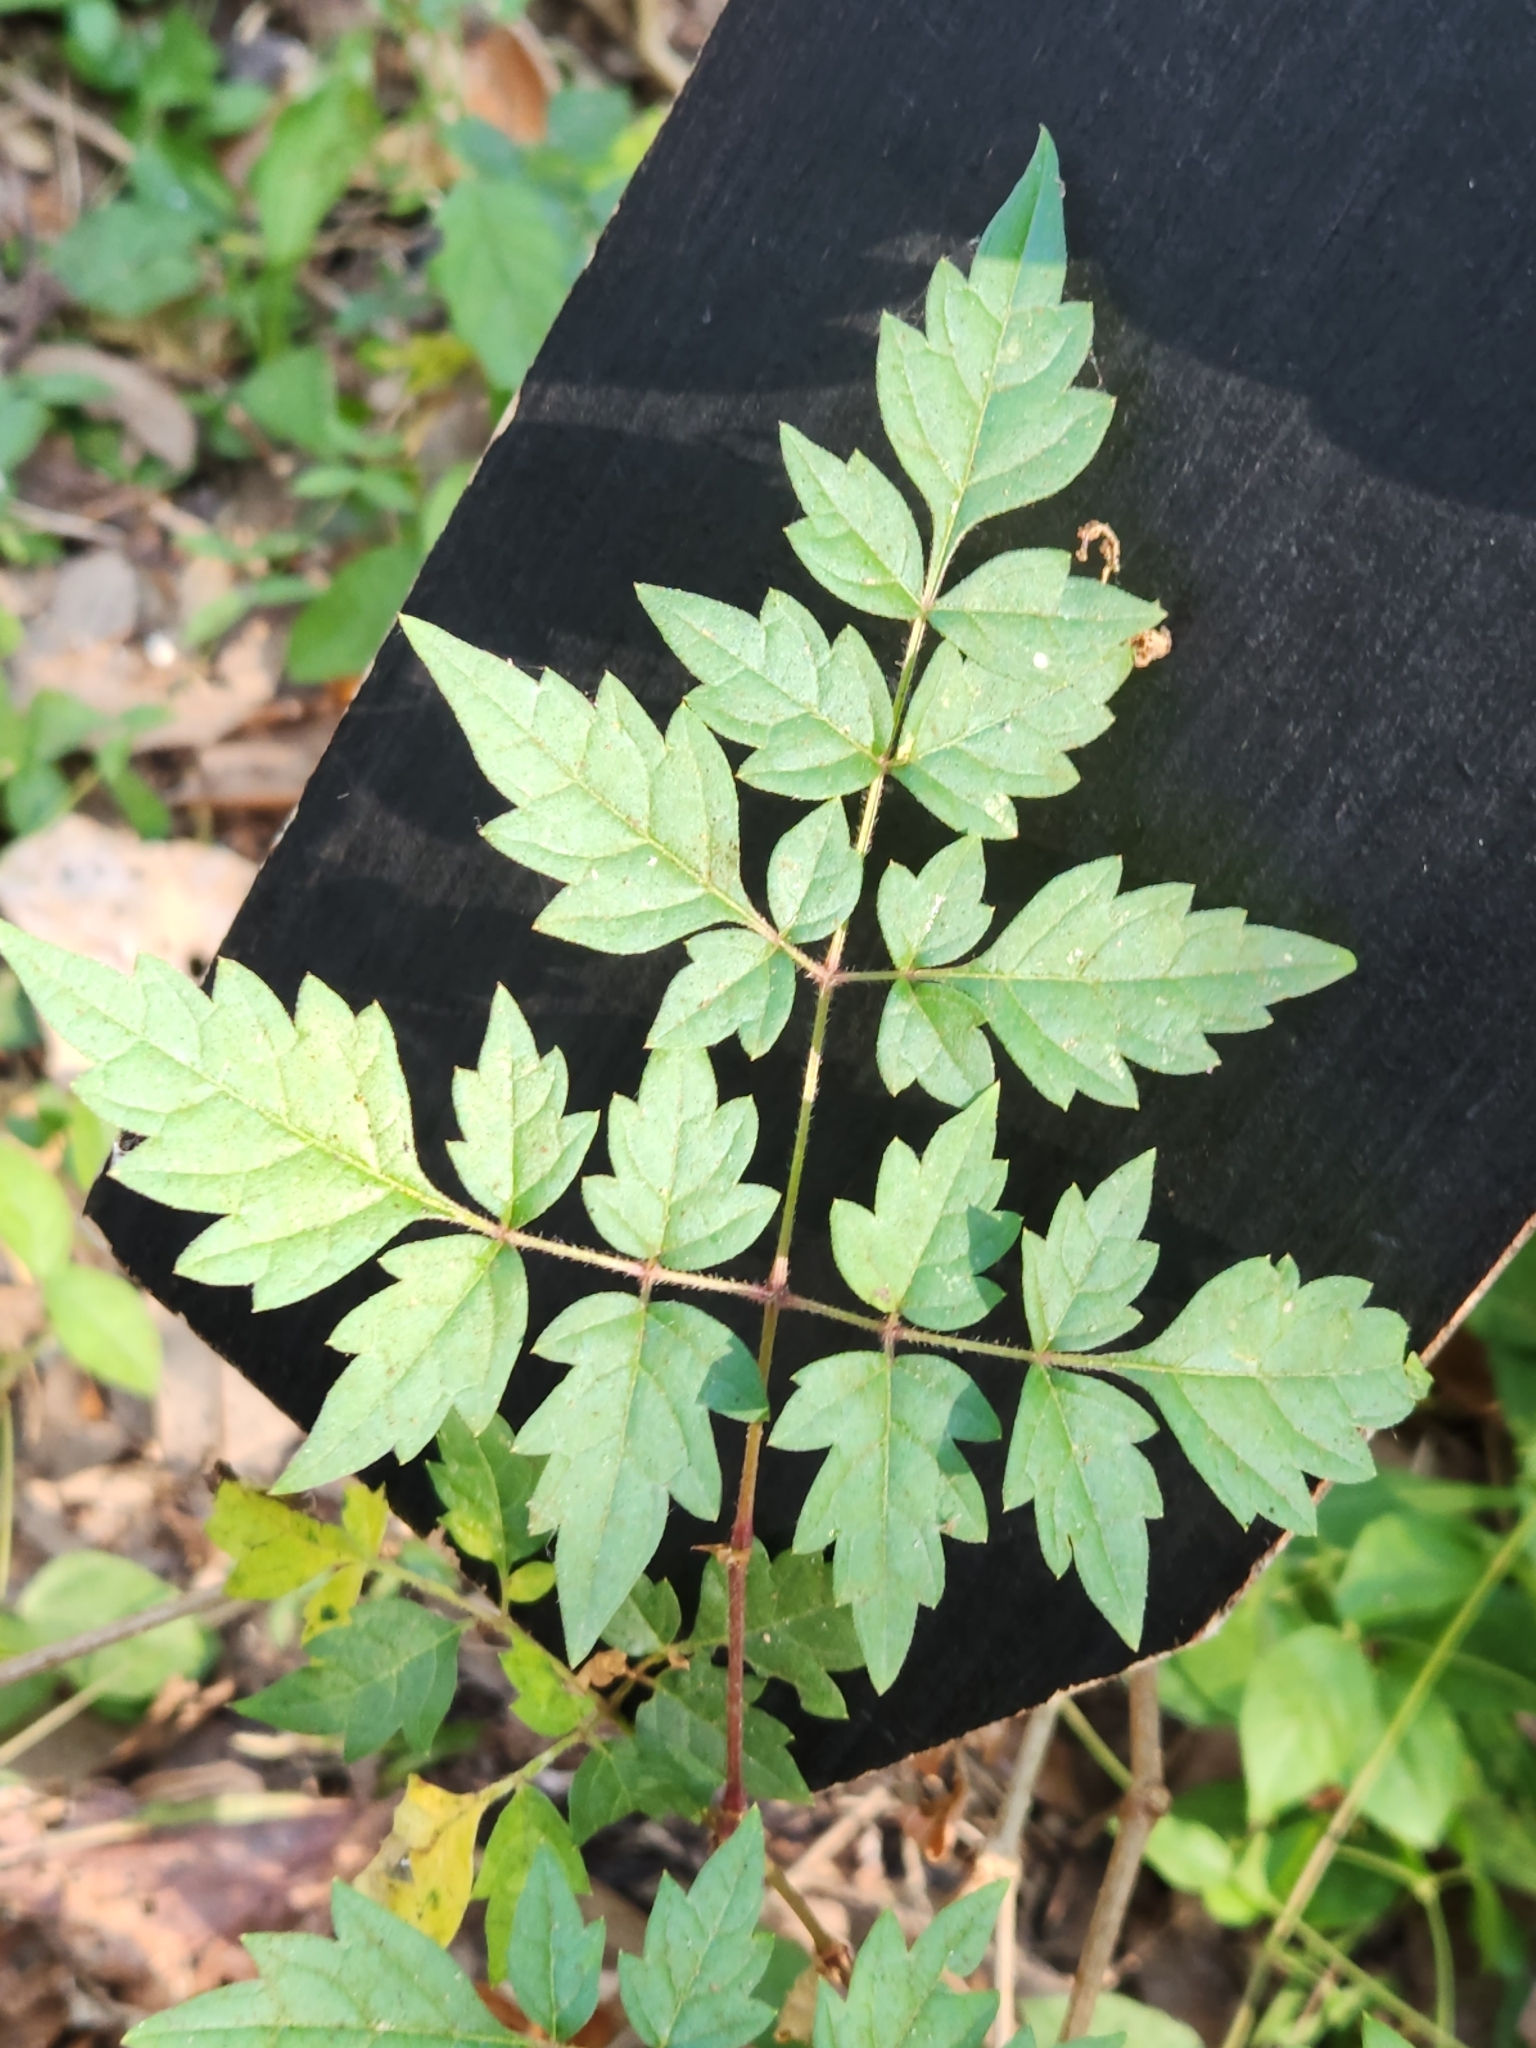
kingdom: Plantae
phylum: Tracheophyta
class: Magnoliopsida
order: Vitales
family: Vitaceae
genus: Nekemias
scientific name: Nekemias arborea
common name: Peppervine
